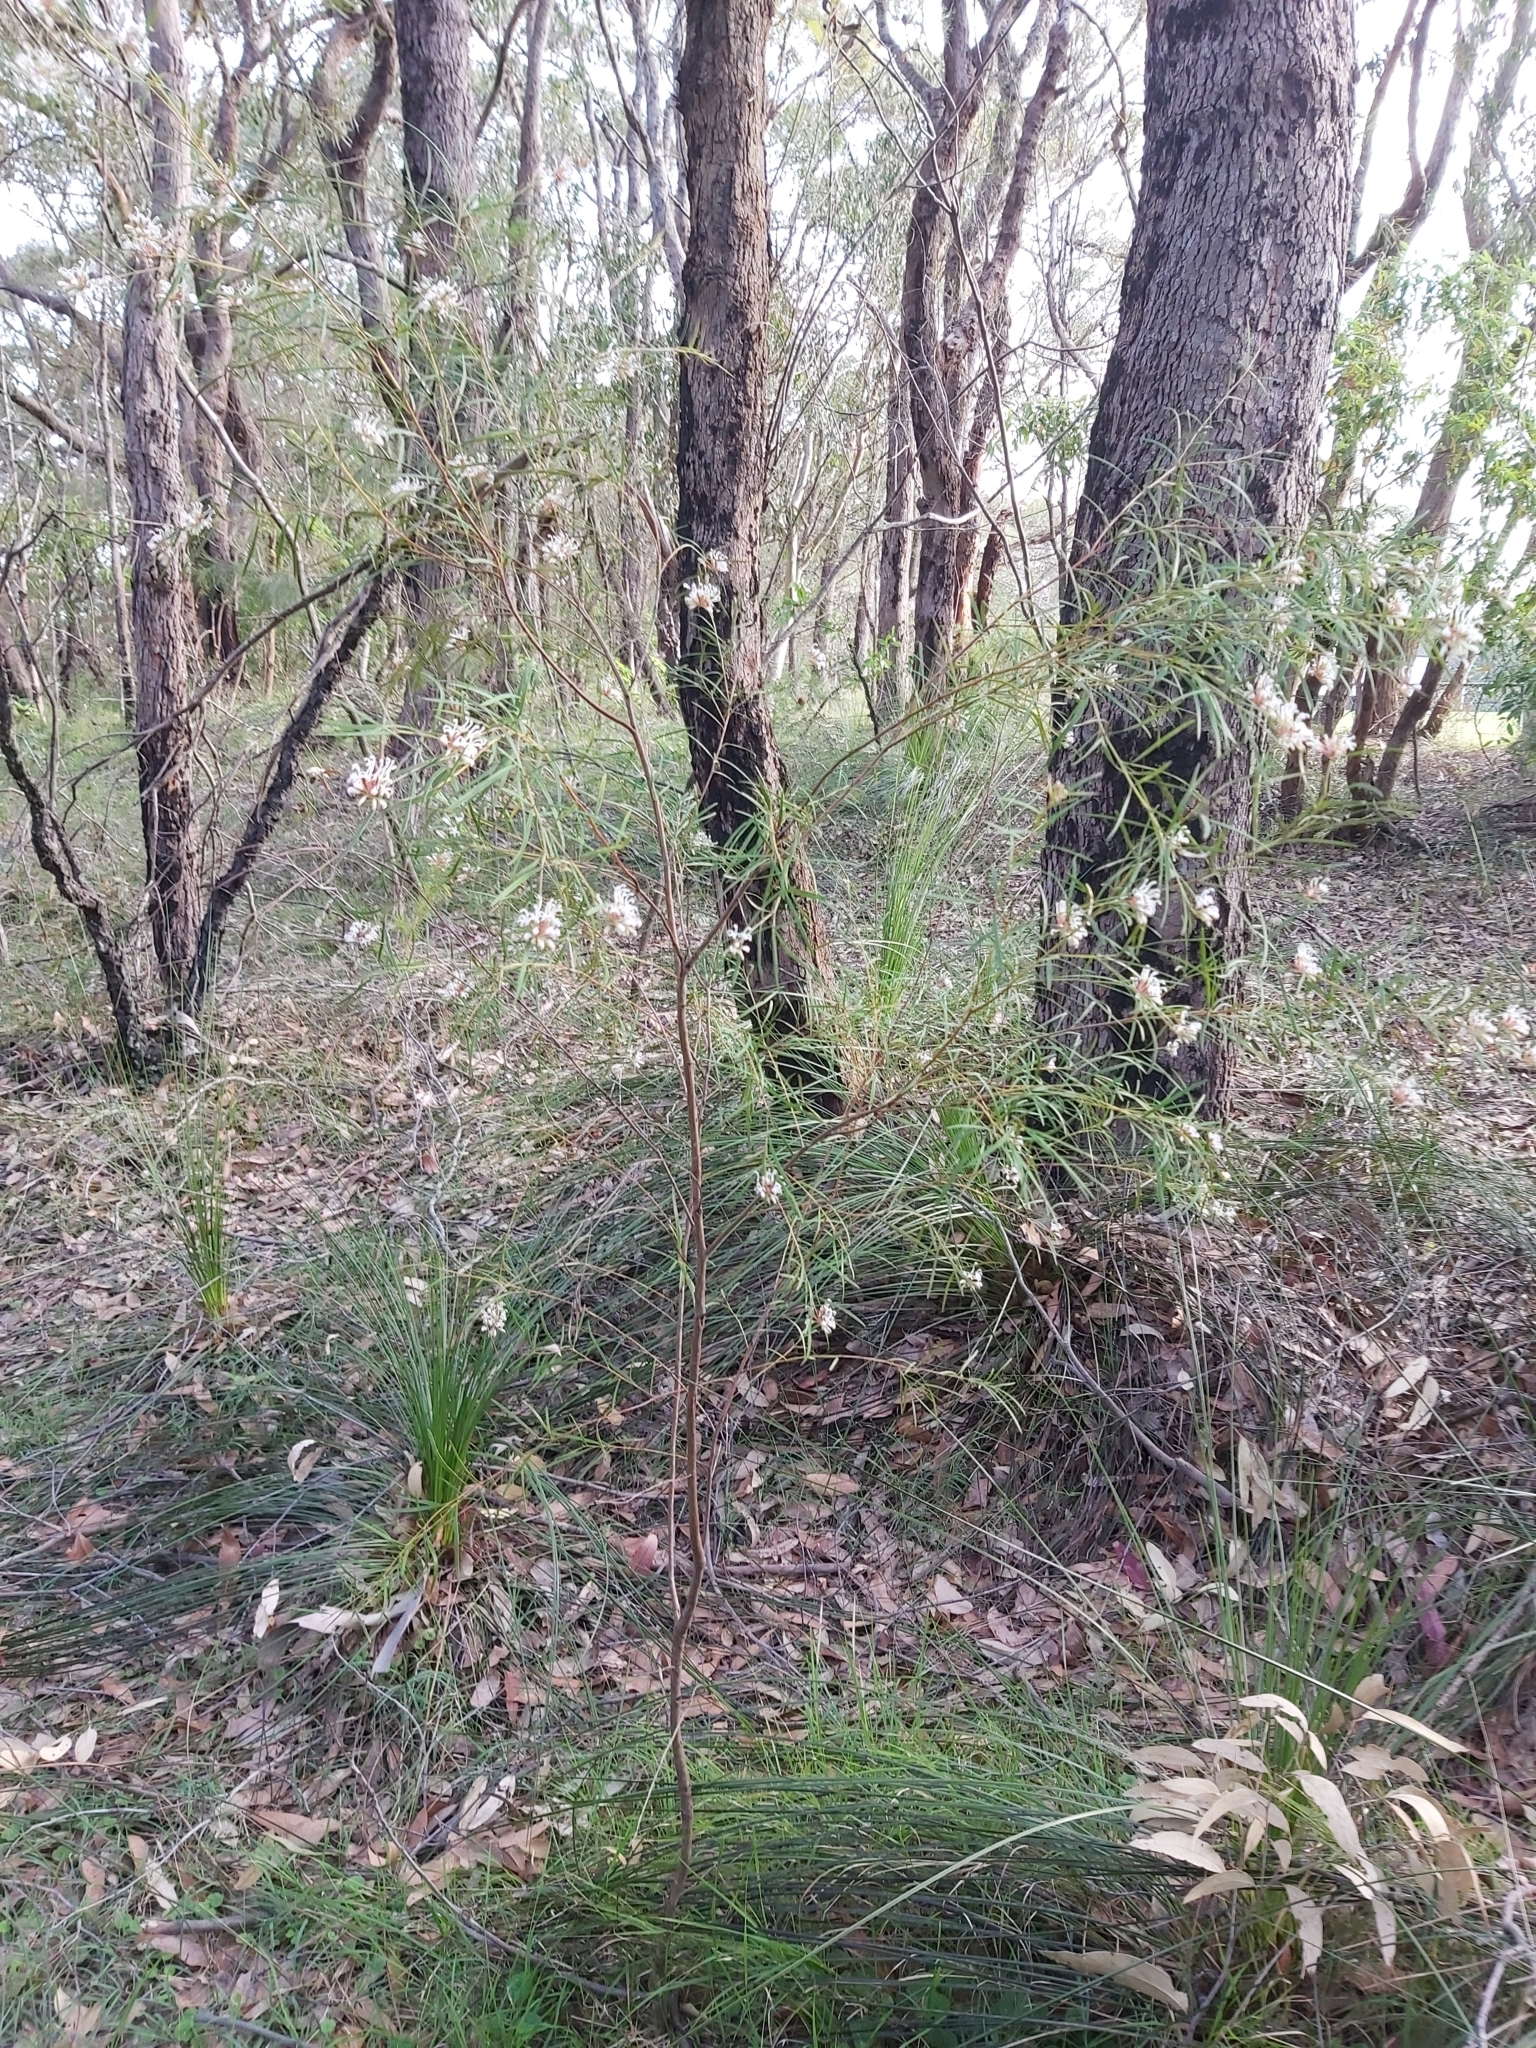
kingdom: Plantae
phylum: Tracheophyta
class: Magnoliopsida
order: Proteales
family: Proteaceae
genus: Grevillea
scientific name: Grevillea linearifolia
